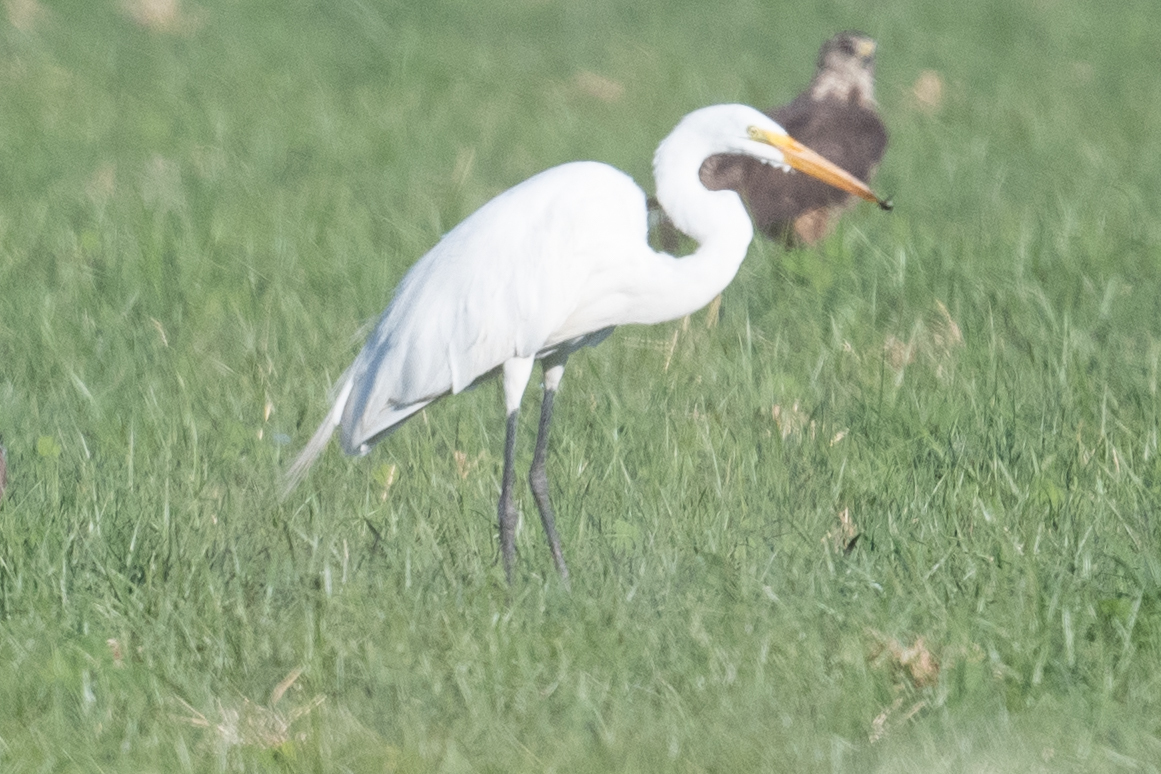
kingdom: Animalia
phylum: Chordata
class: Aves
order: Pelecaniformes
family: Ardeidae
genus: Ardea
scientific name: Ardea alba
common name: Great egret
